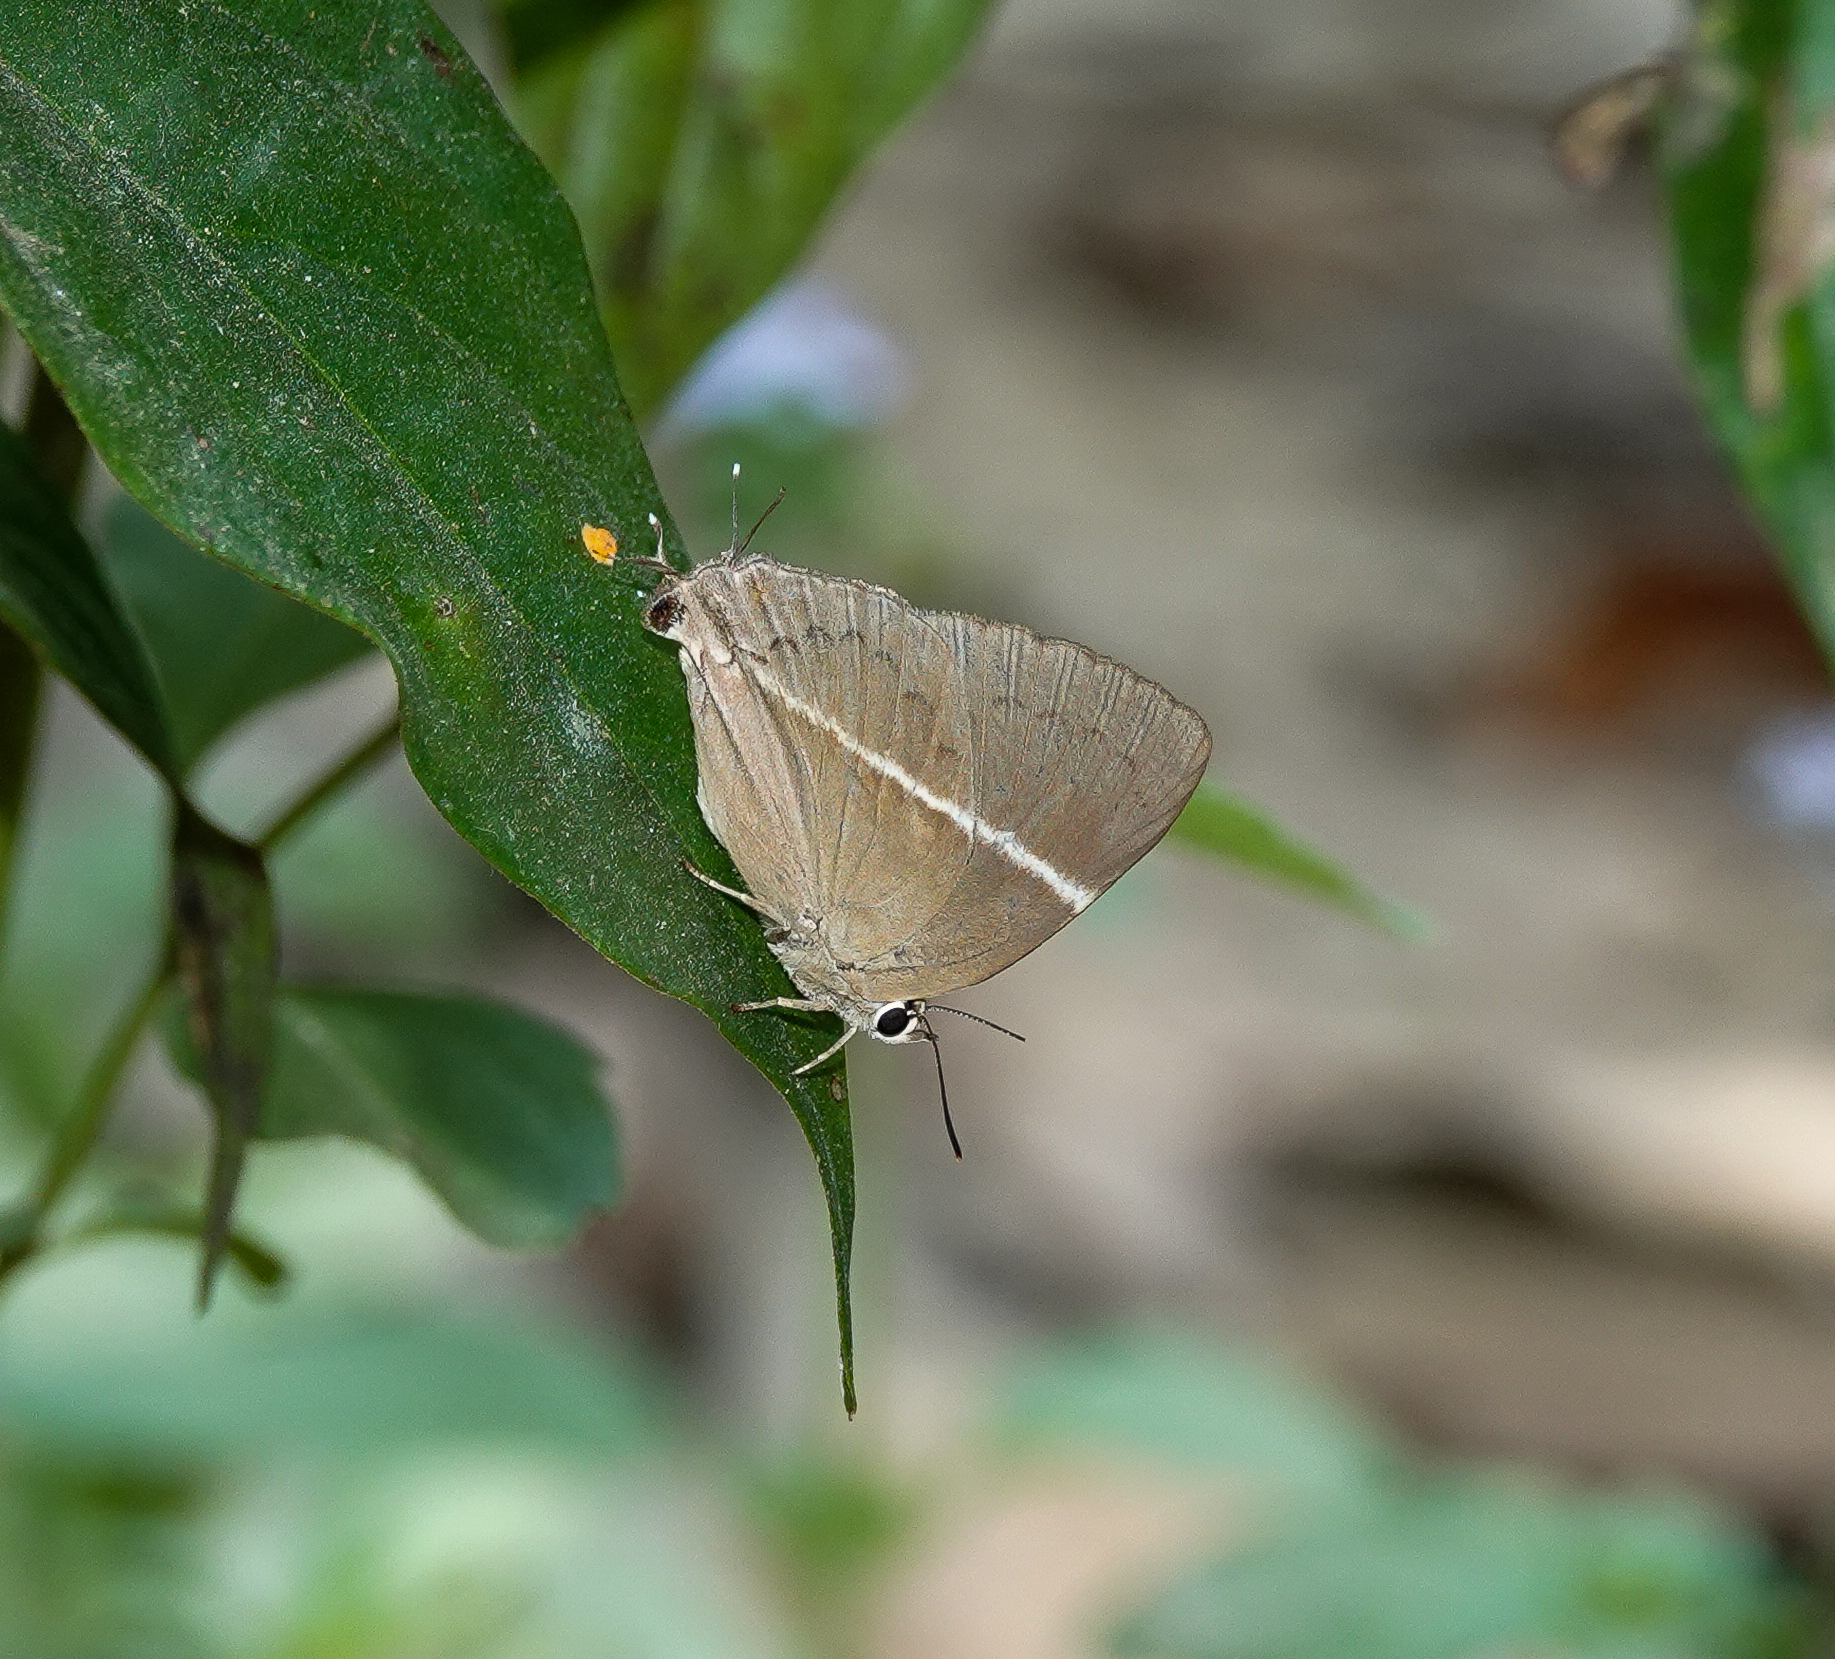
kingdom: Animalia
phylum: Arthropoda
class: Insecta
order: Lepidoptera
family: Lycaenidae
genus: Dacalana
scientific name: Dacalana pencilligera
